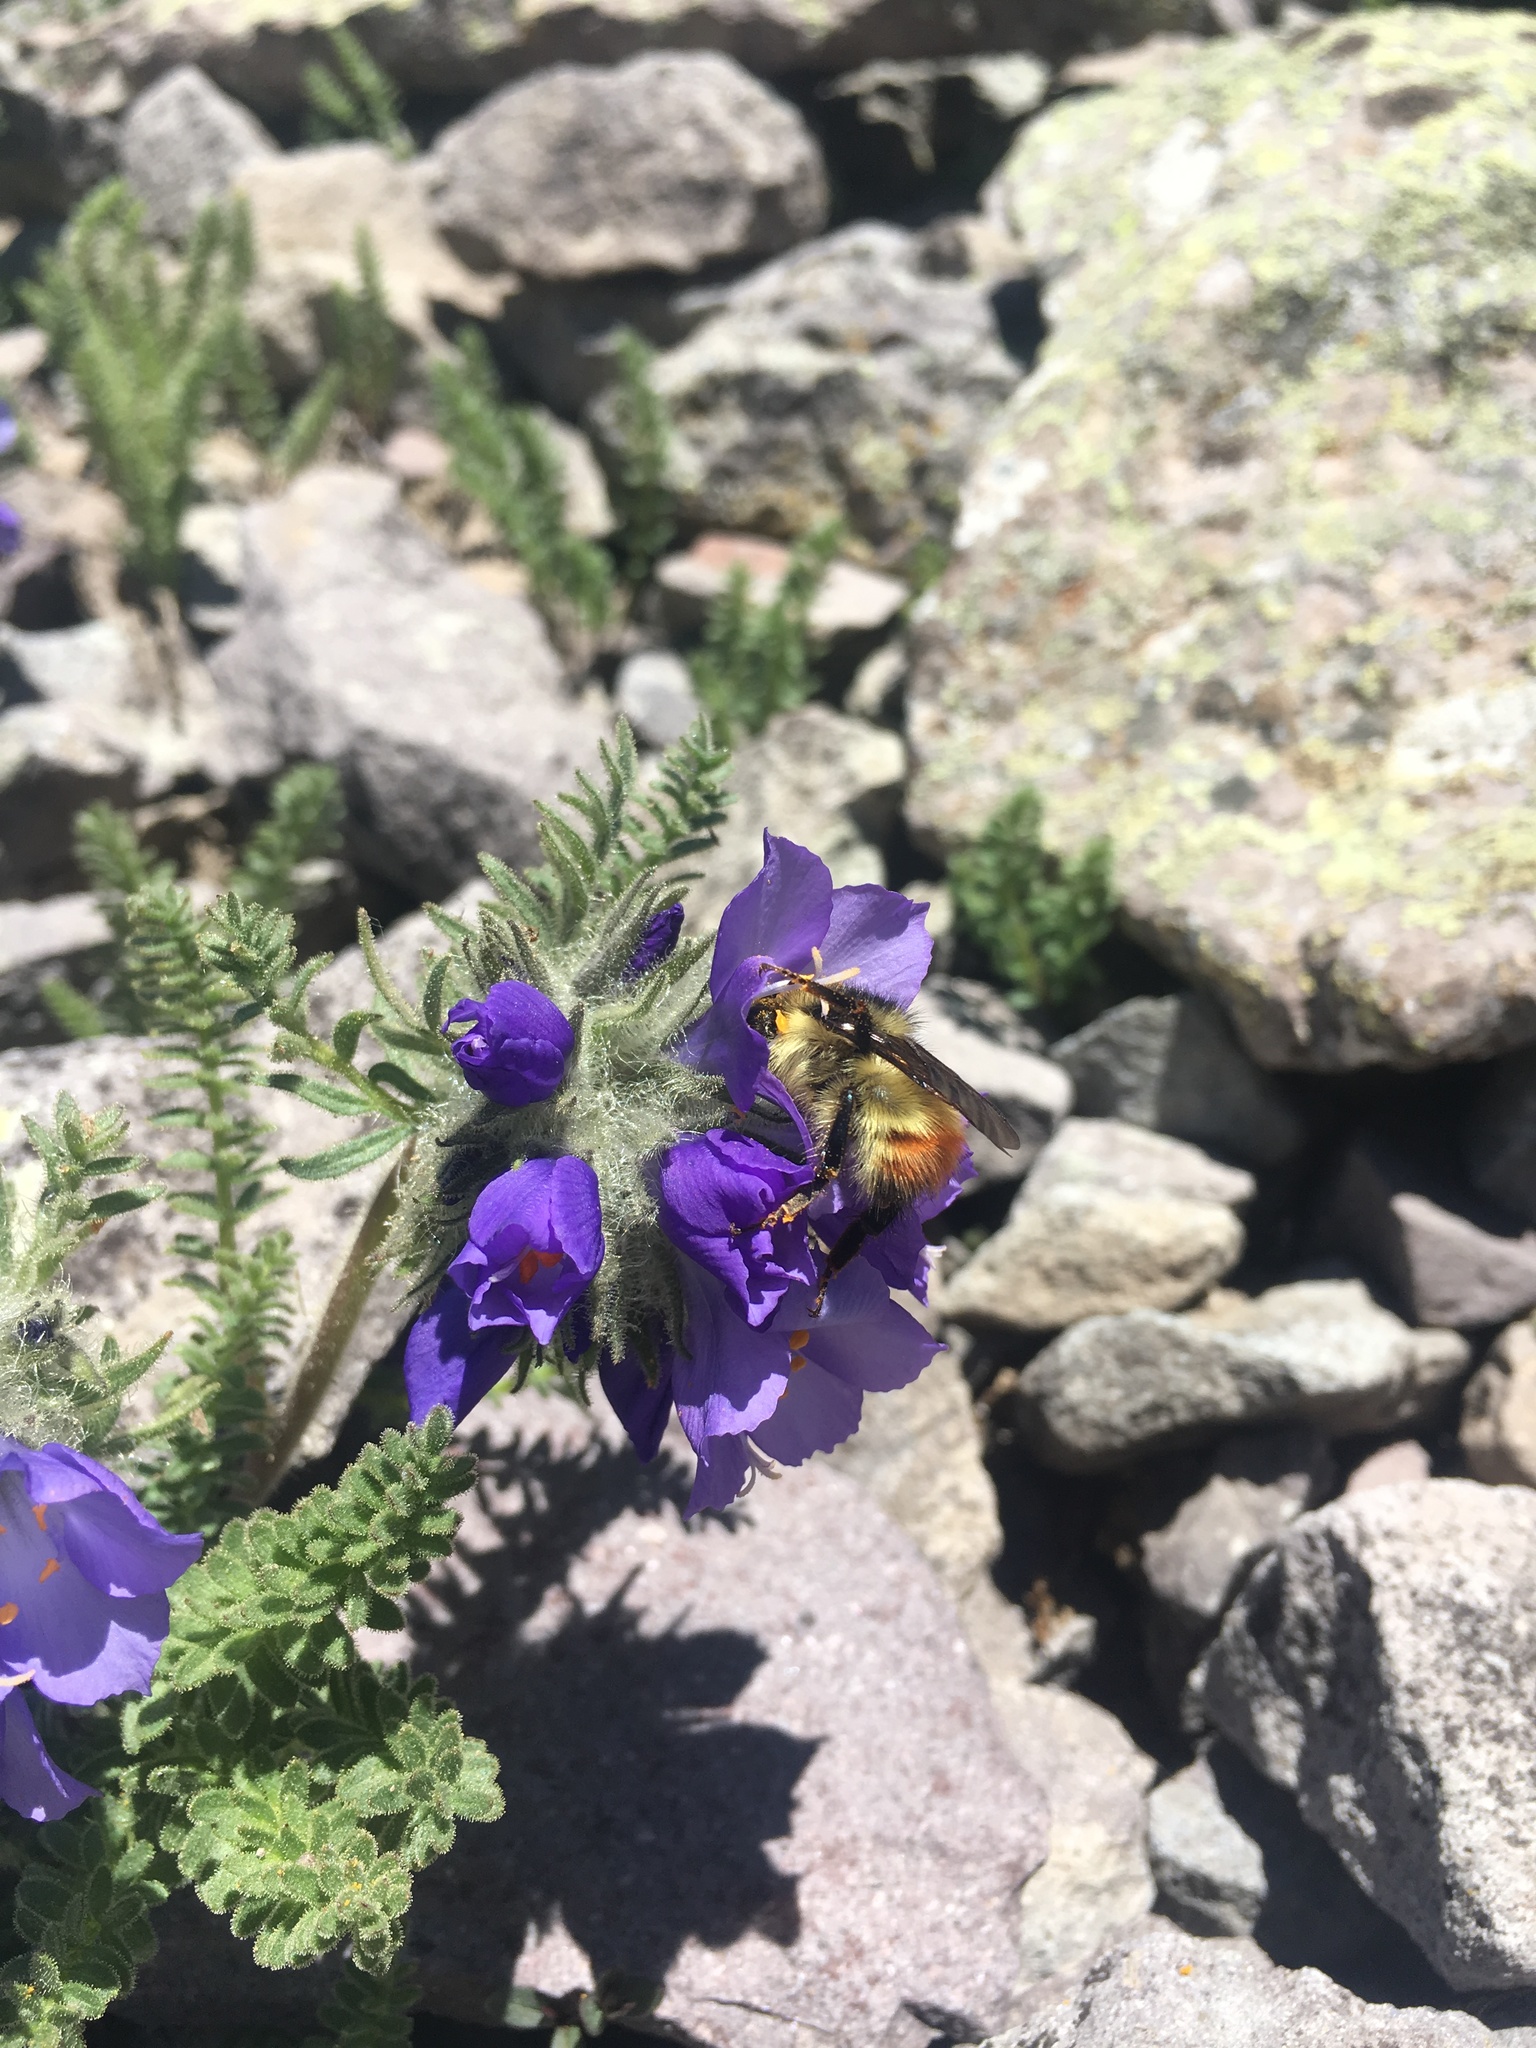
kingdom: Animalia
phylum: Arthropoda
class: Insecta
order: Hymenoptera
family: Apidae
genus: Bombus
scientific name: Bombus centralis
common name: Central bumble bee
